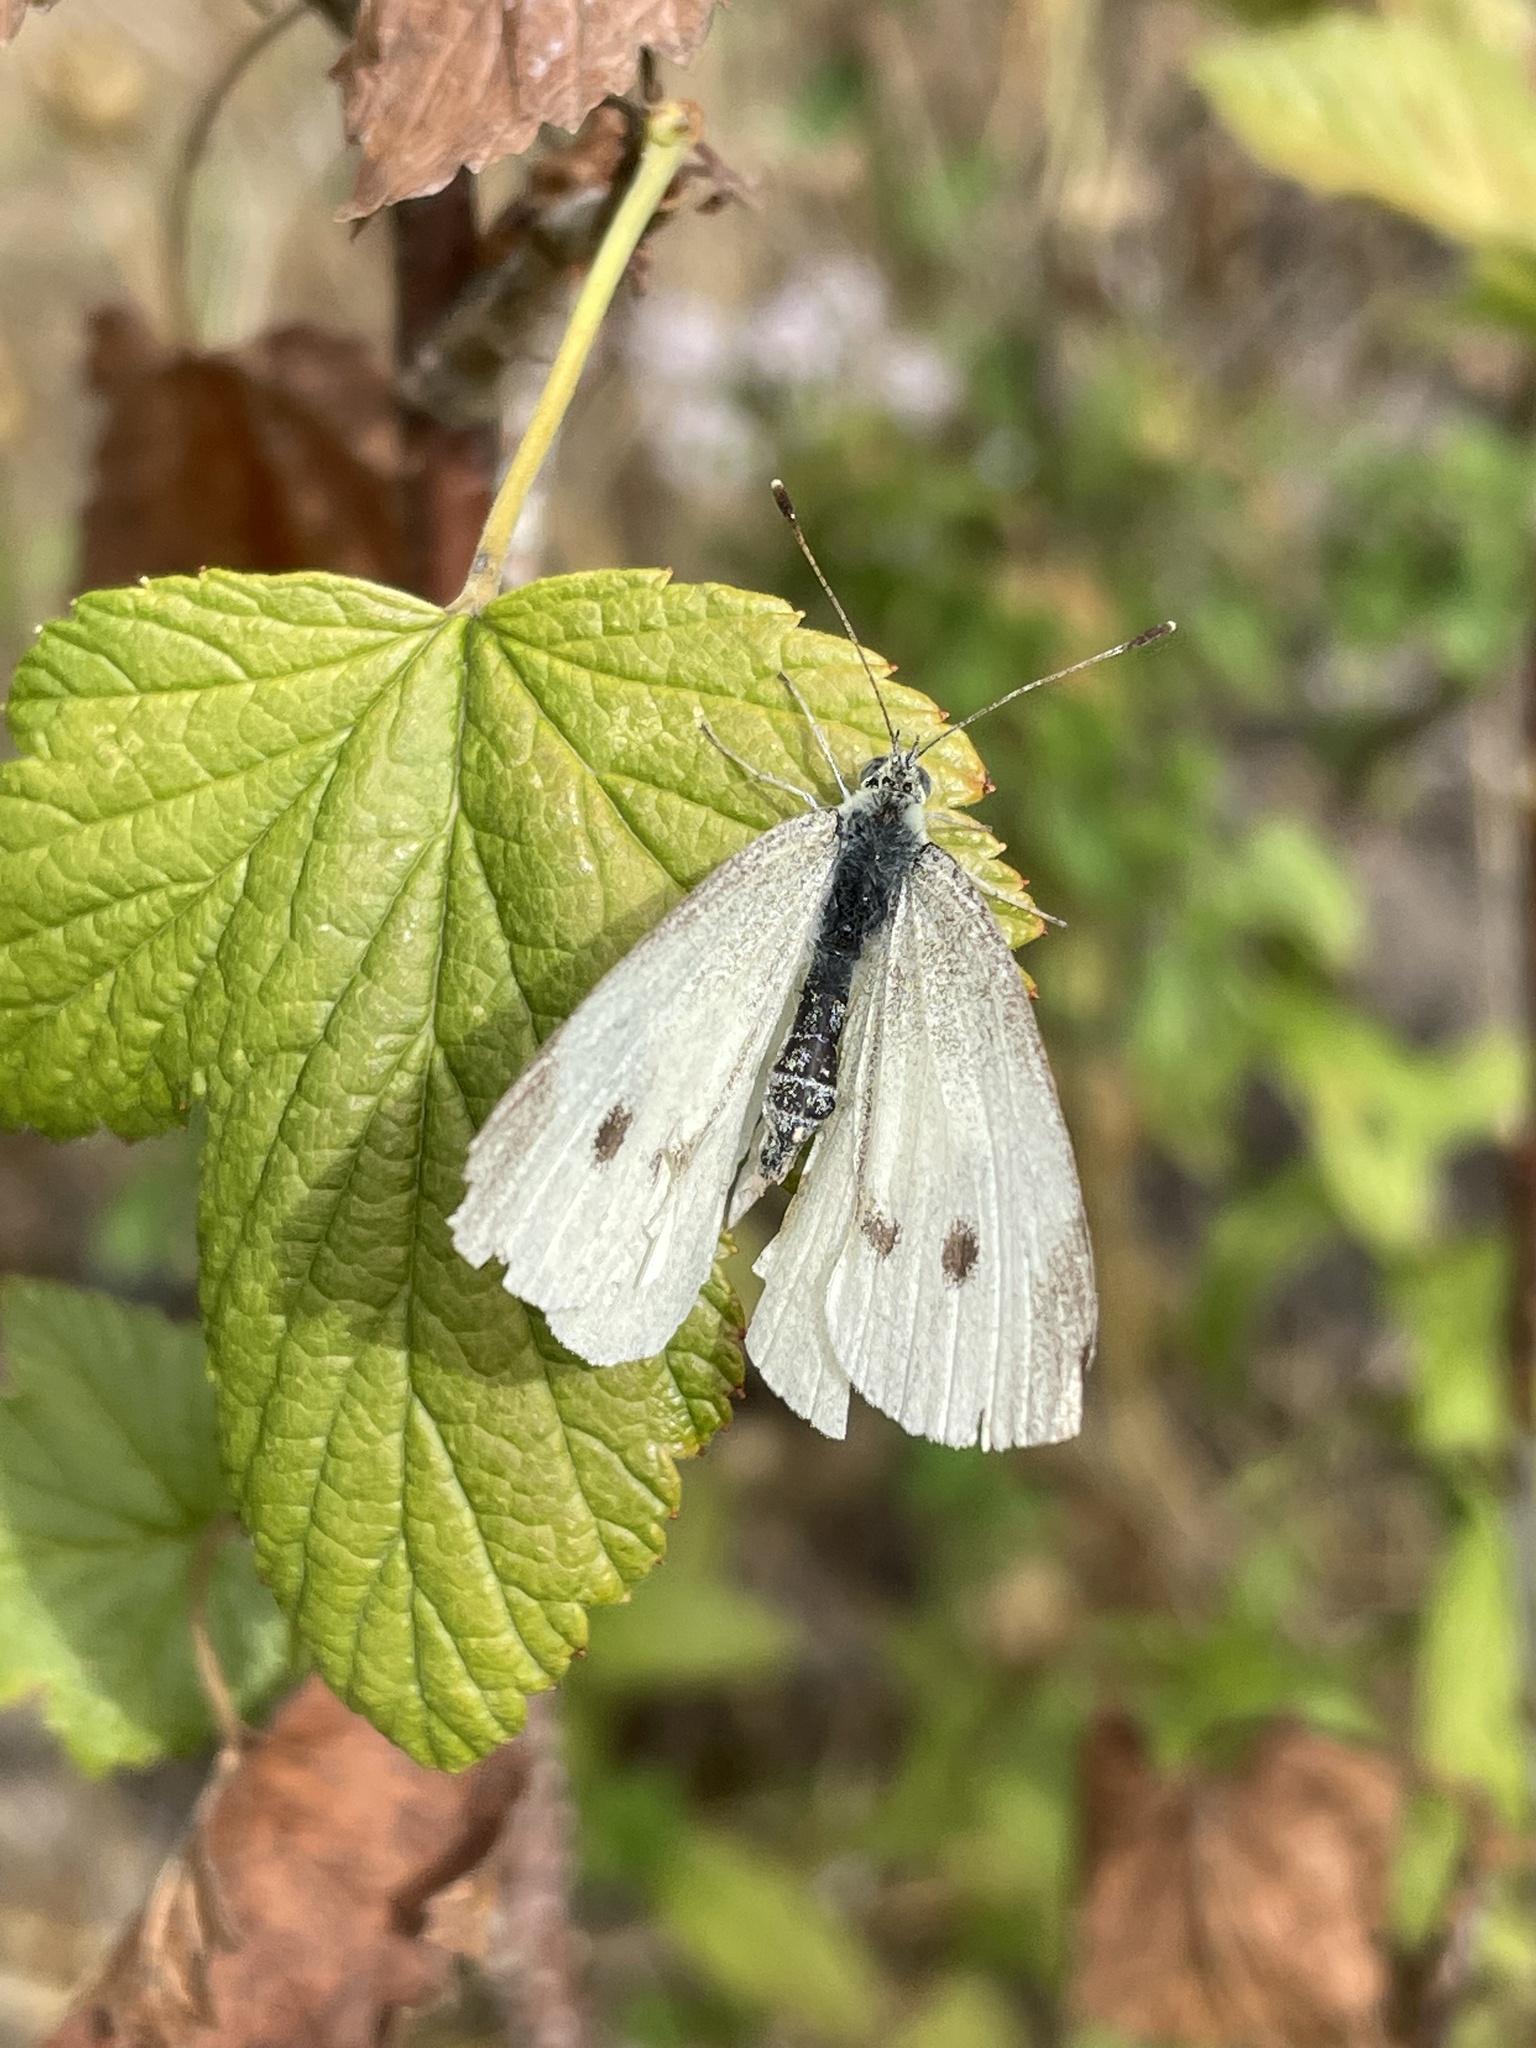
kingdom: Animalia
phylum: Arthropoda
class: Insecta
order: Lepidoptera
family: Pieridae
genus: Pieris
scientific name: Pieris rapae
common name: Small white
